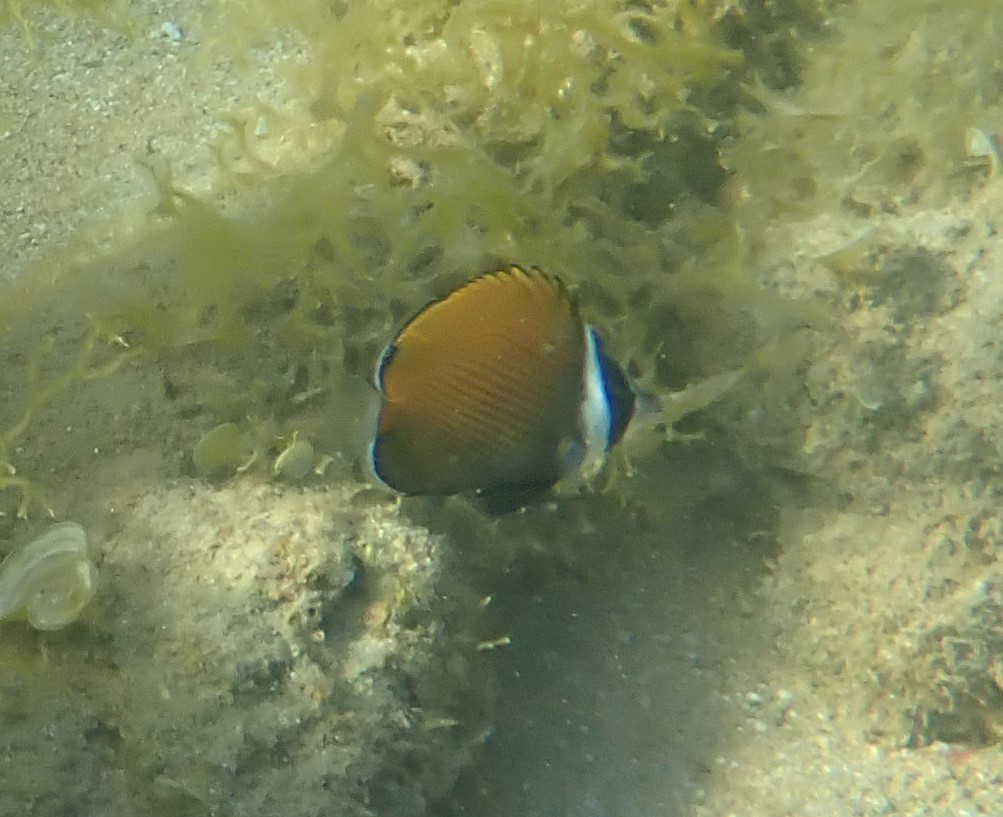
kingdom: Animalia
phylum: Chordata
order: Perciformes
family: Chaetodontidae
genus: Chaetodon
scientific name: Chaetodon collare
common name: Redtail butterflyfish
